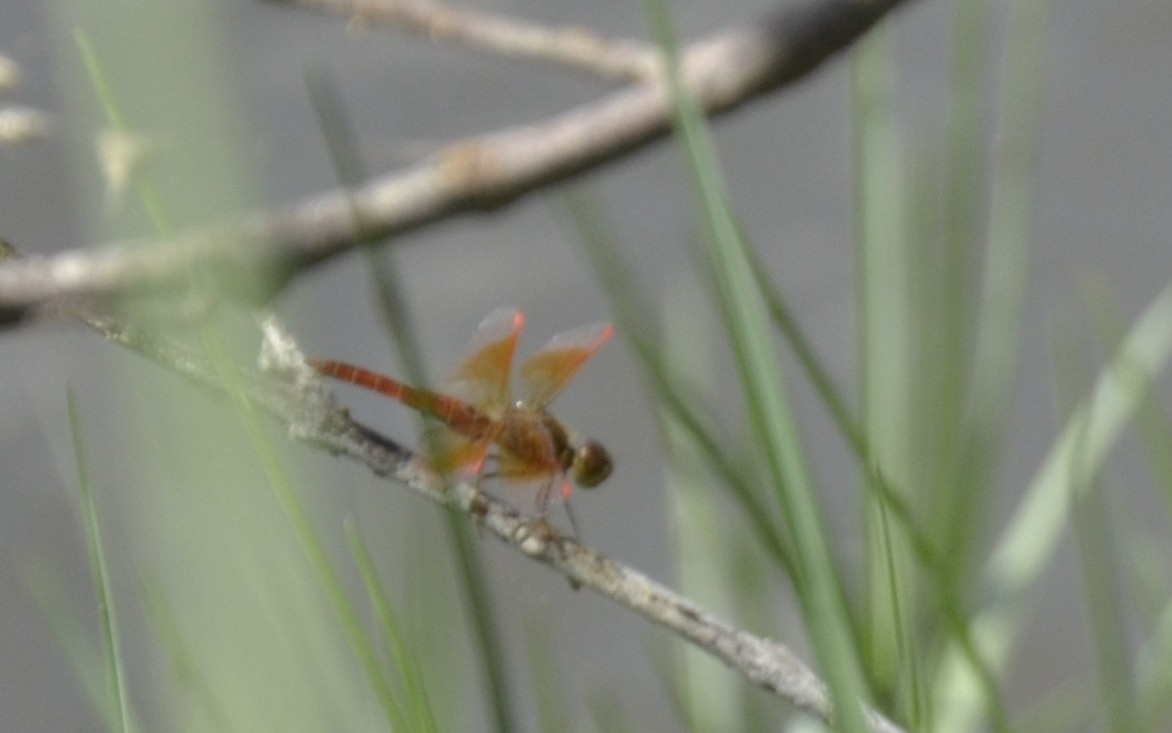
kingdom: Animalia
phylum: Arthropoda
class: Insecta
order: Odonata
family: Libellulidae
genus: Brachythemis
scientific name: Brachythemis contaminata
